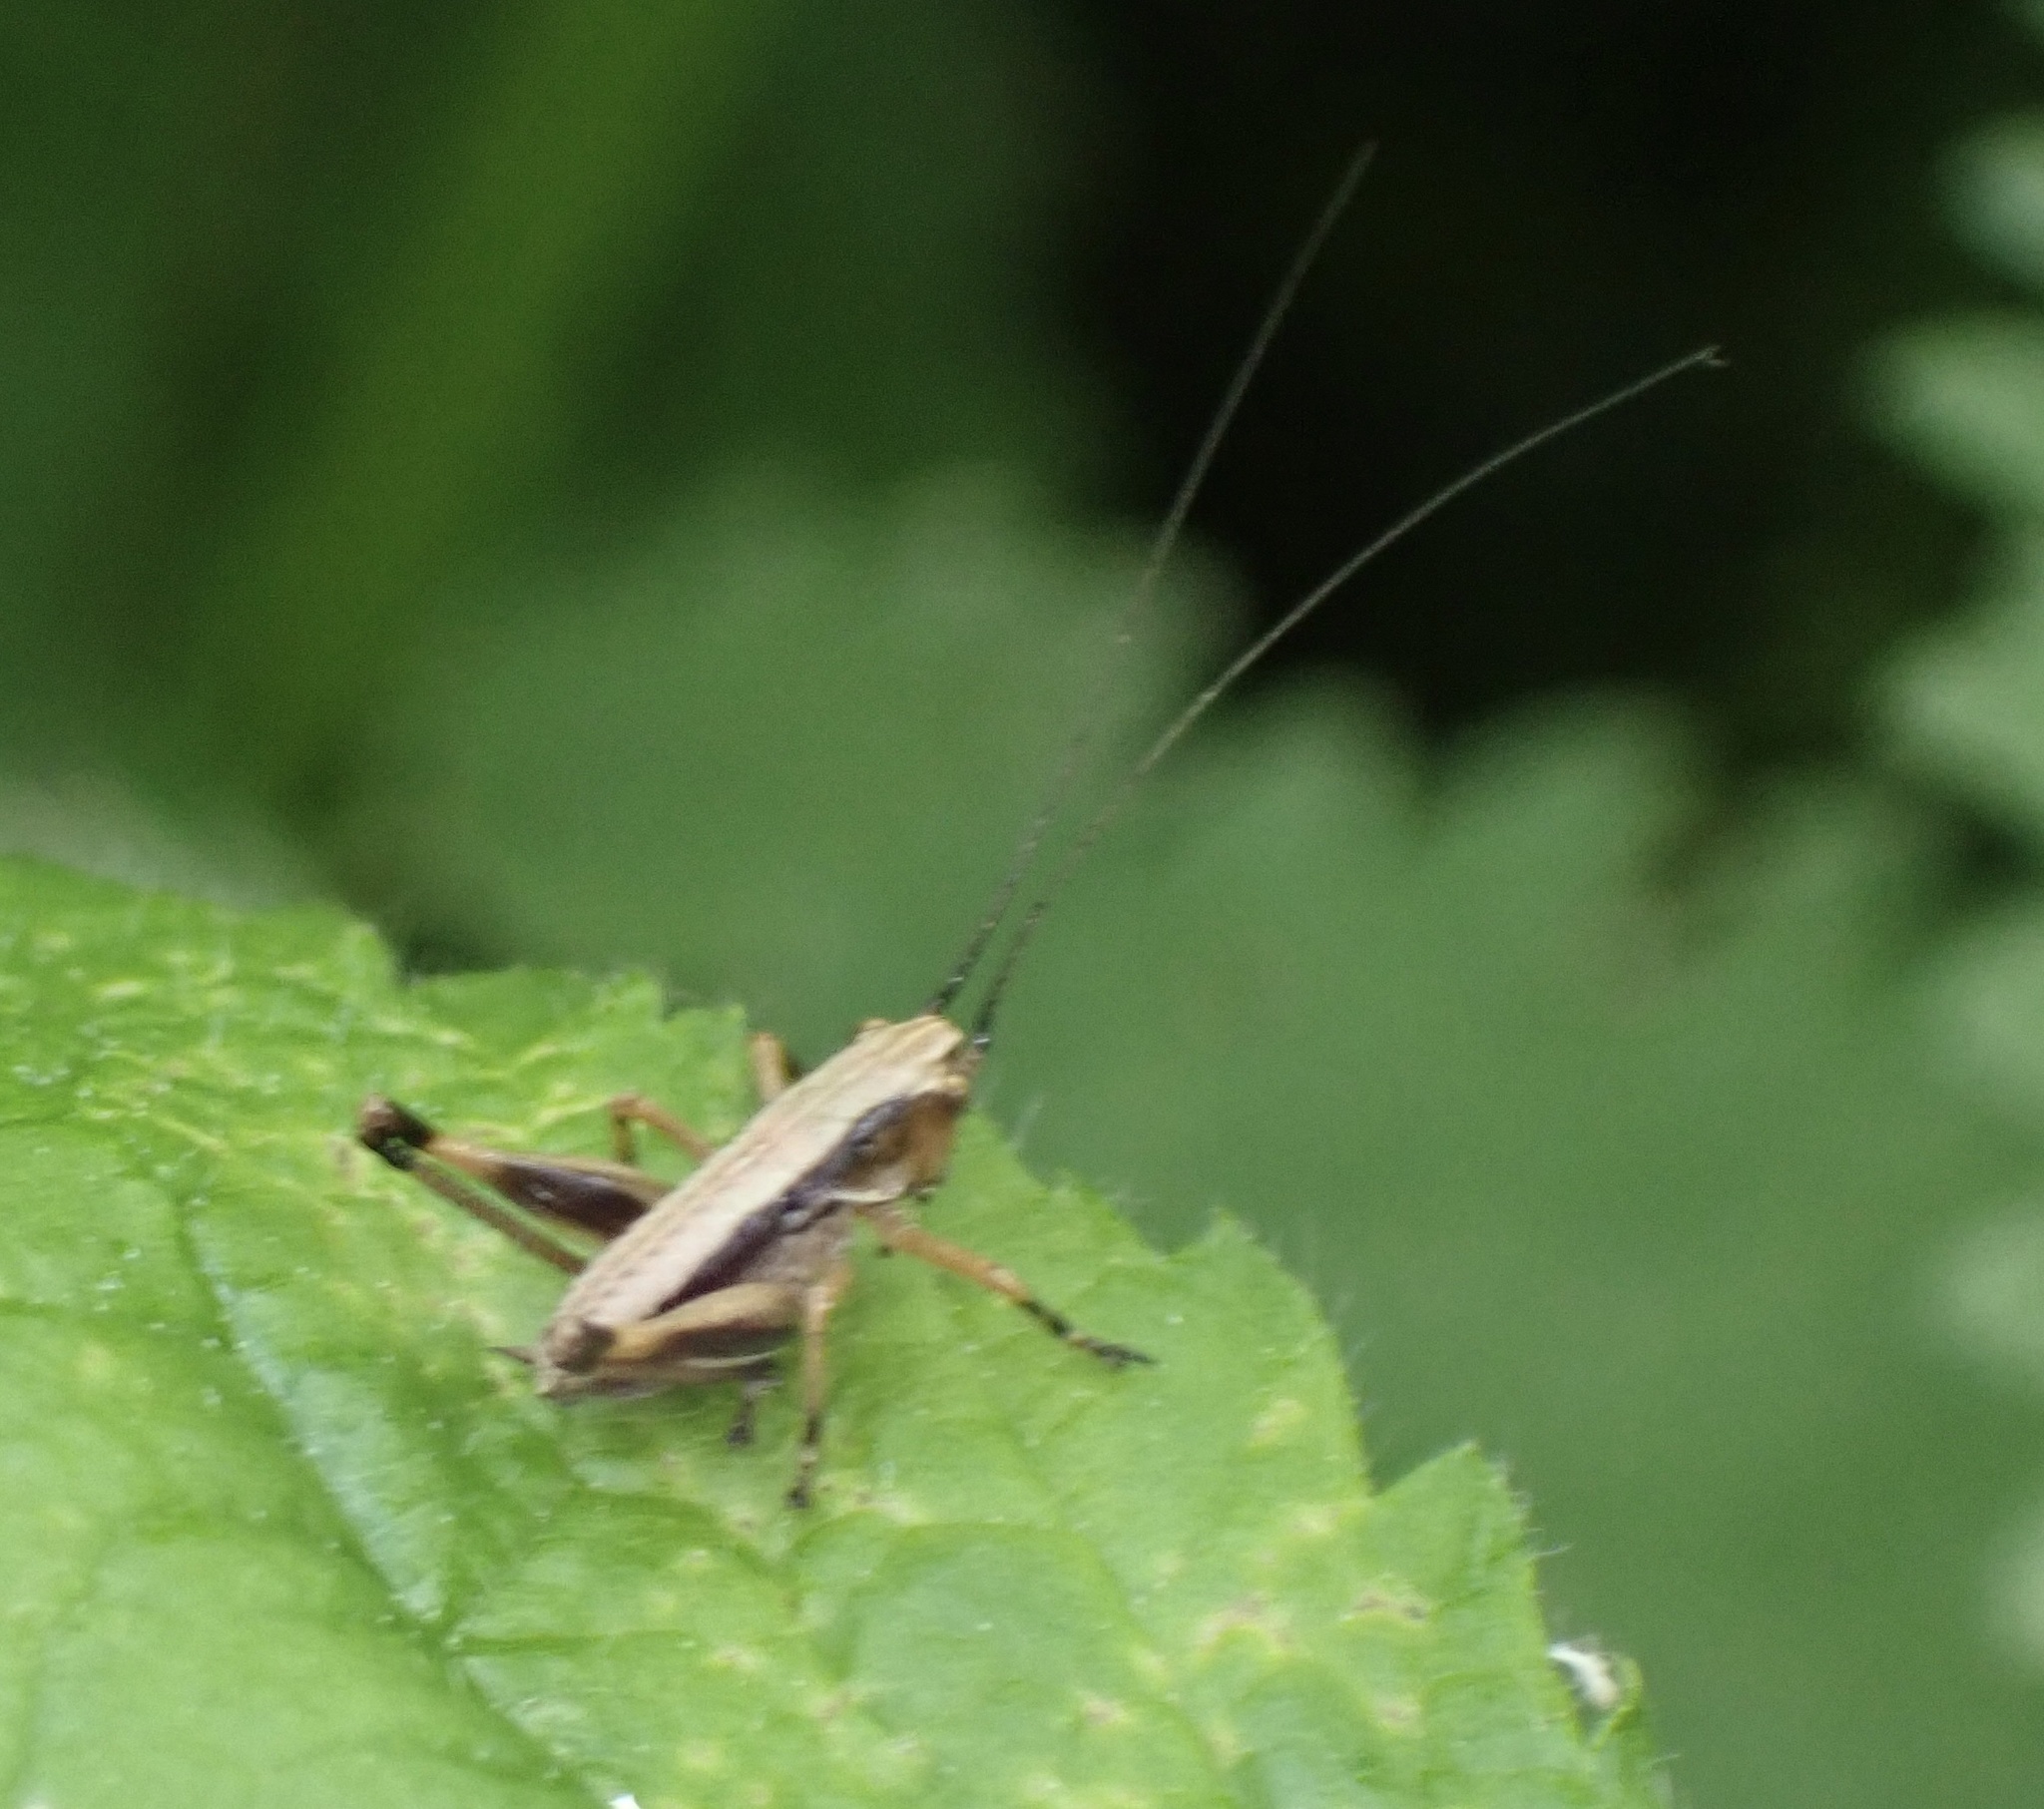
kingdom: Animalia
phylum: Arthropoda
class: Insecta
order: Orthoptera
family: Tettigoniidae
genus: Pholidoptera
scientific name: Pholidoptera griseoaptera
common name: Dark bush-cricket
